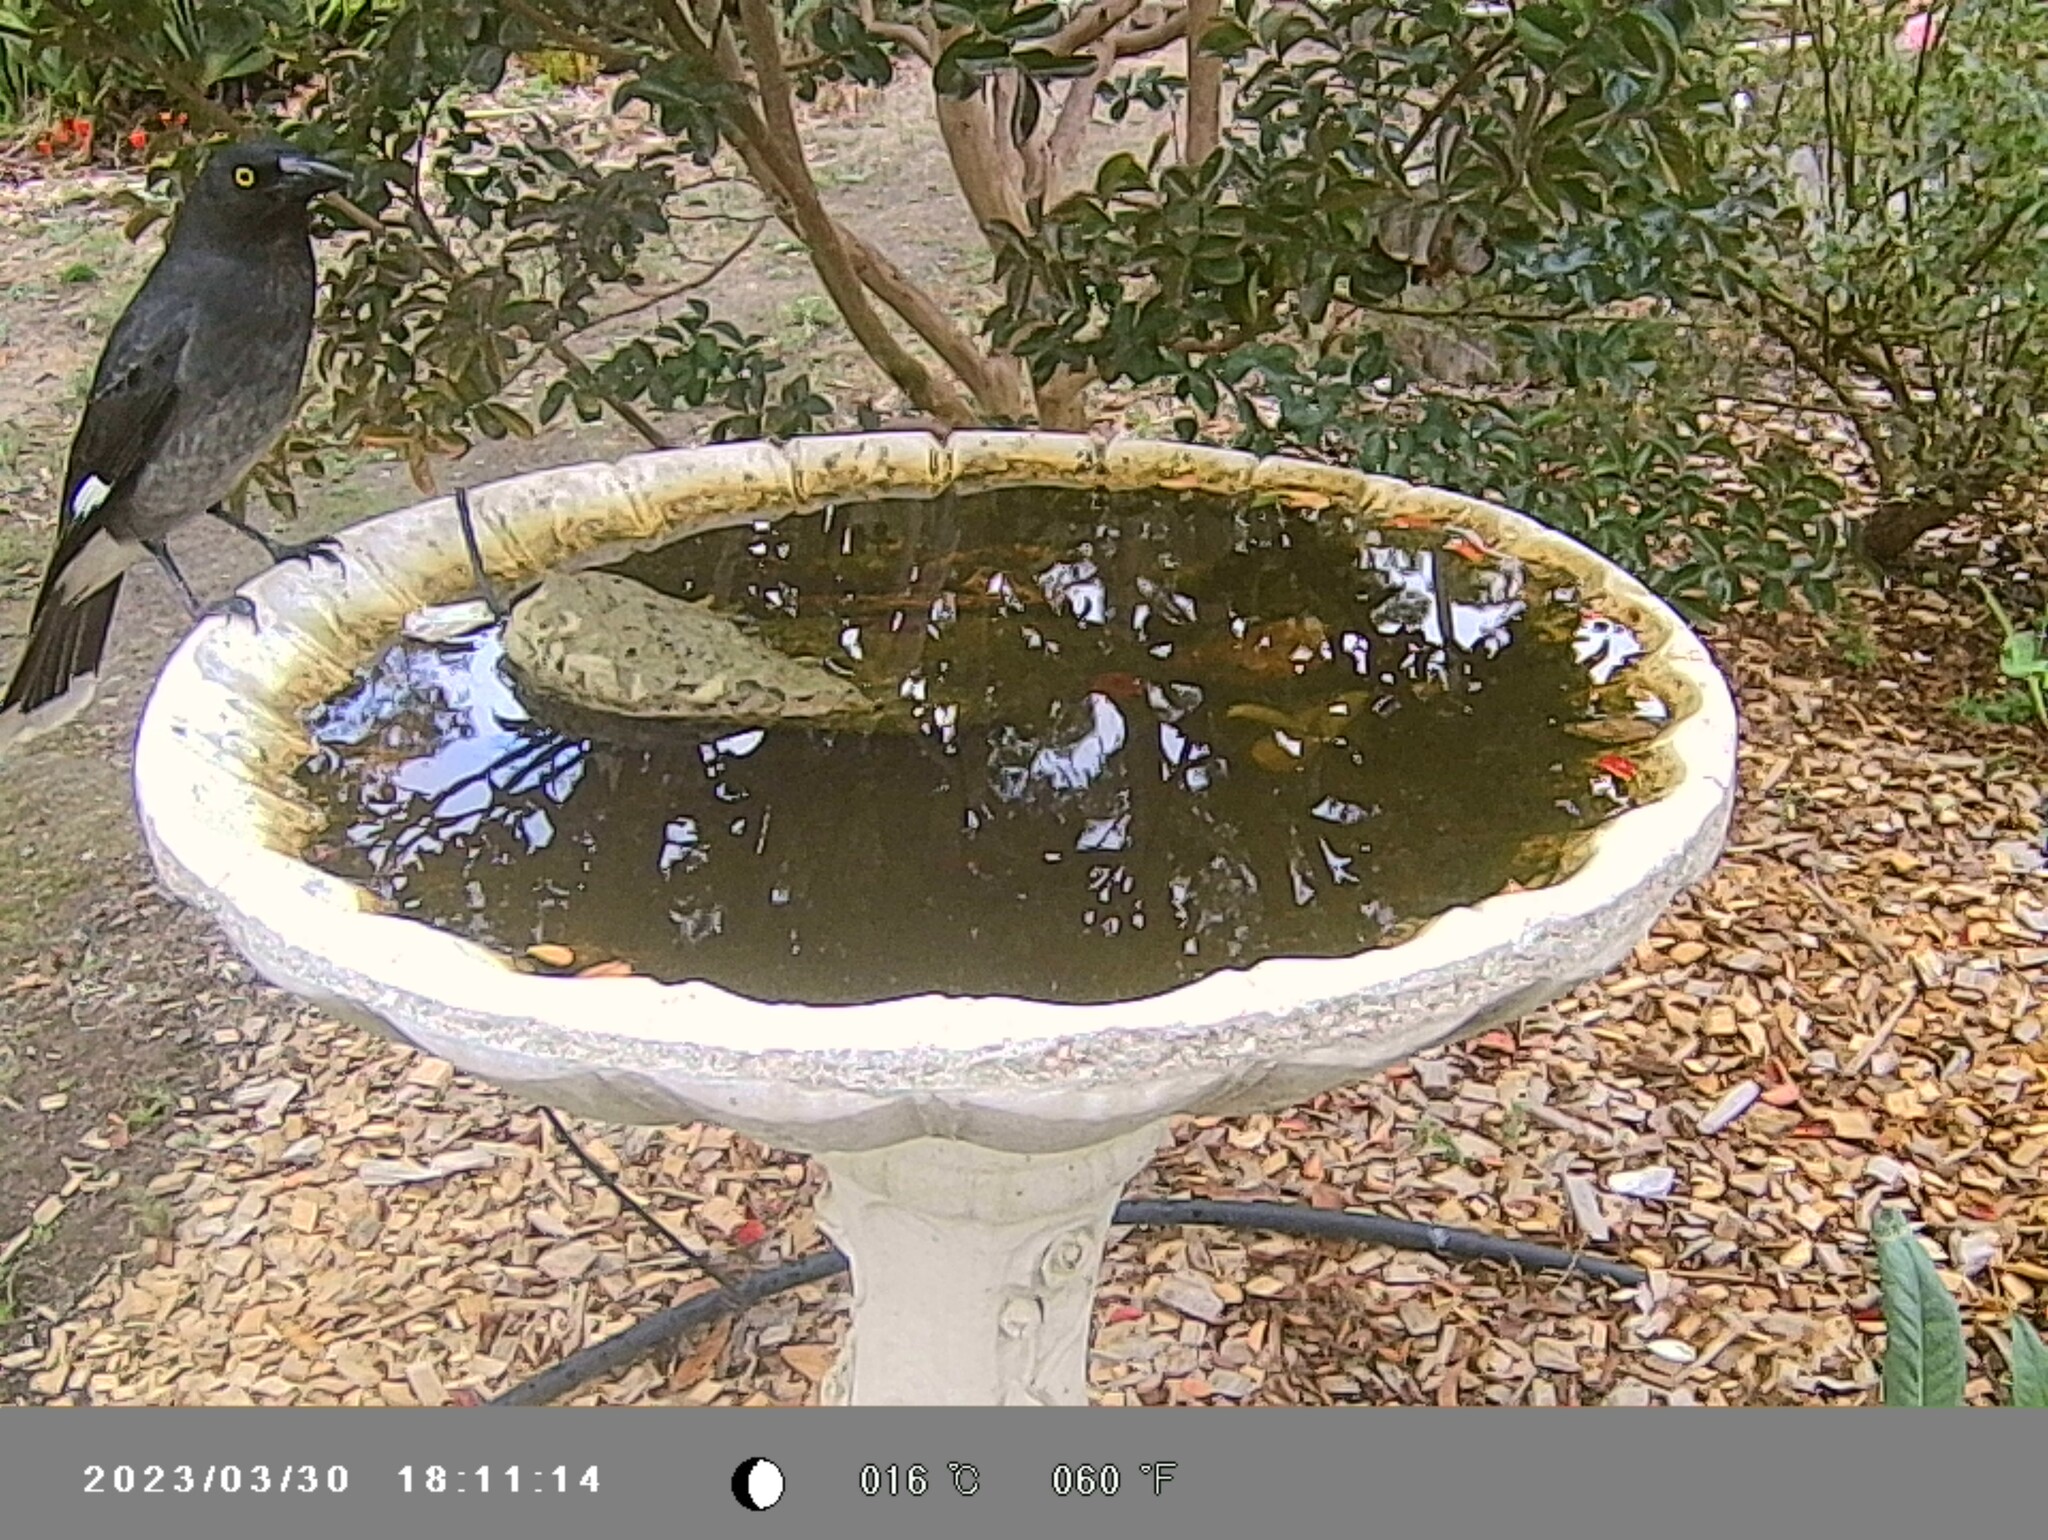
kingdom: Animalia
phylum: Chordata
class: Aves
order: Passeriformes
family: Cracticidae
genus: Strepera
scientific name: Strepera graculina
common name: Pied currawong
